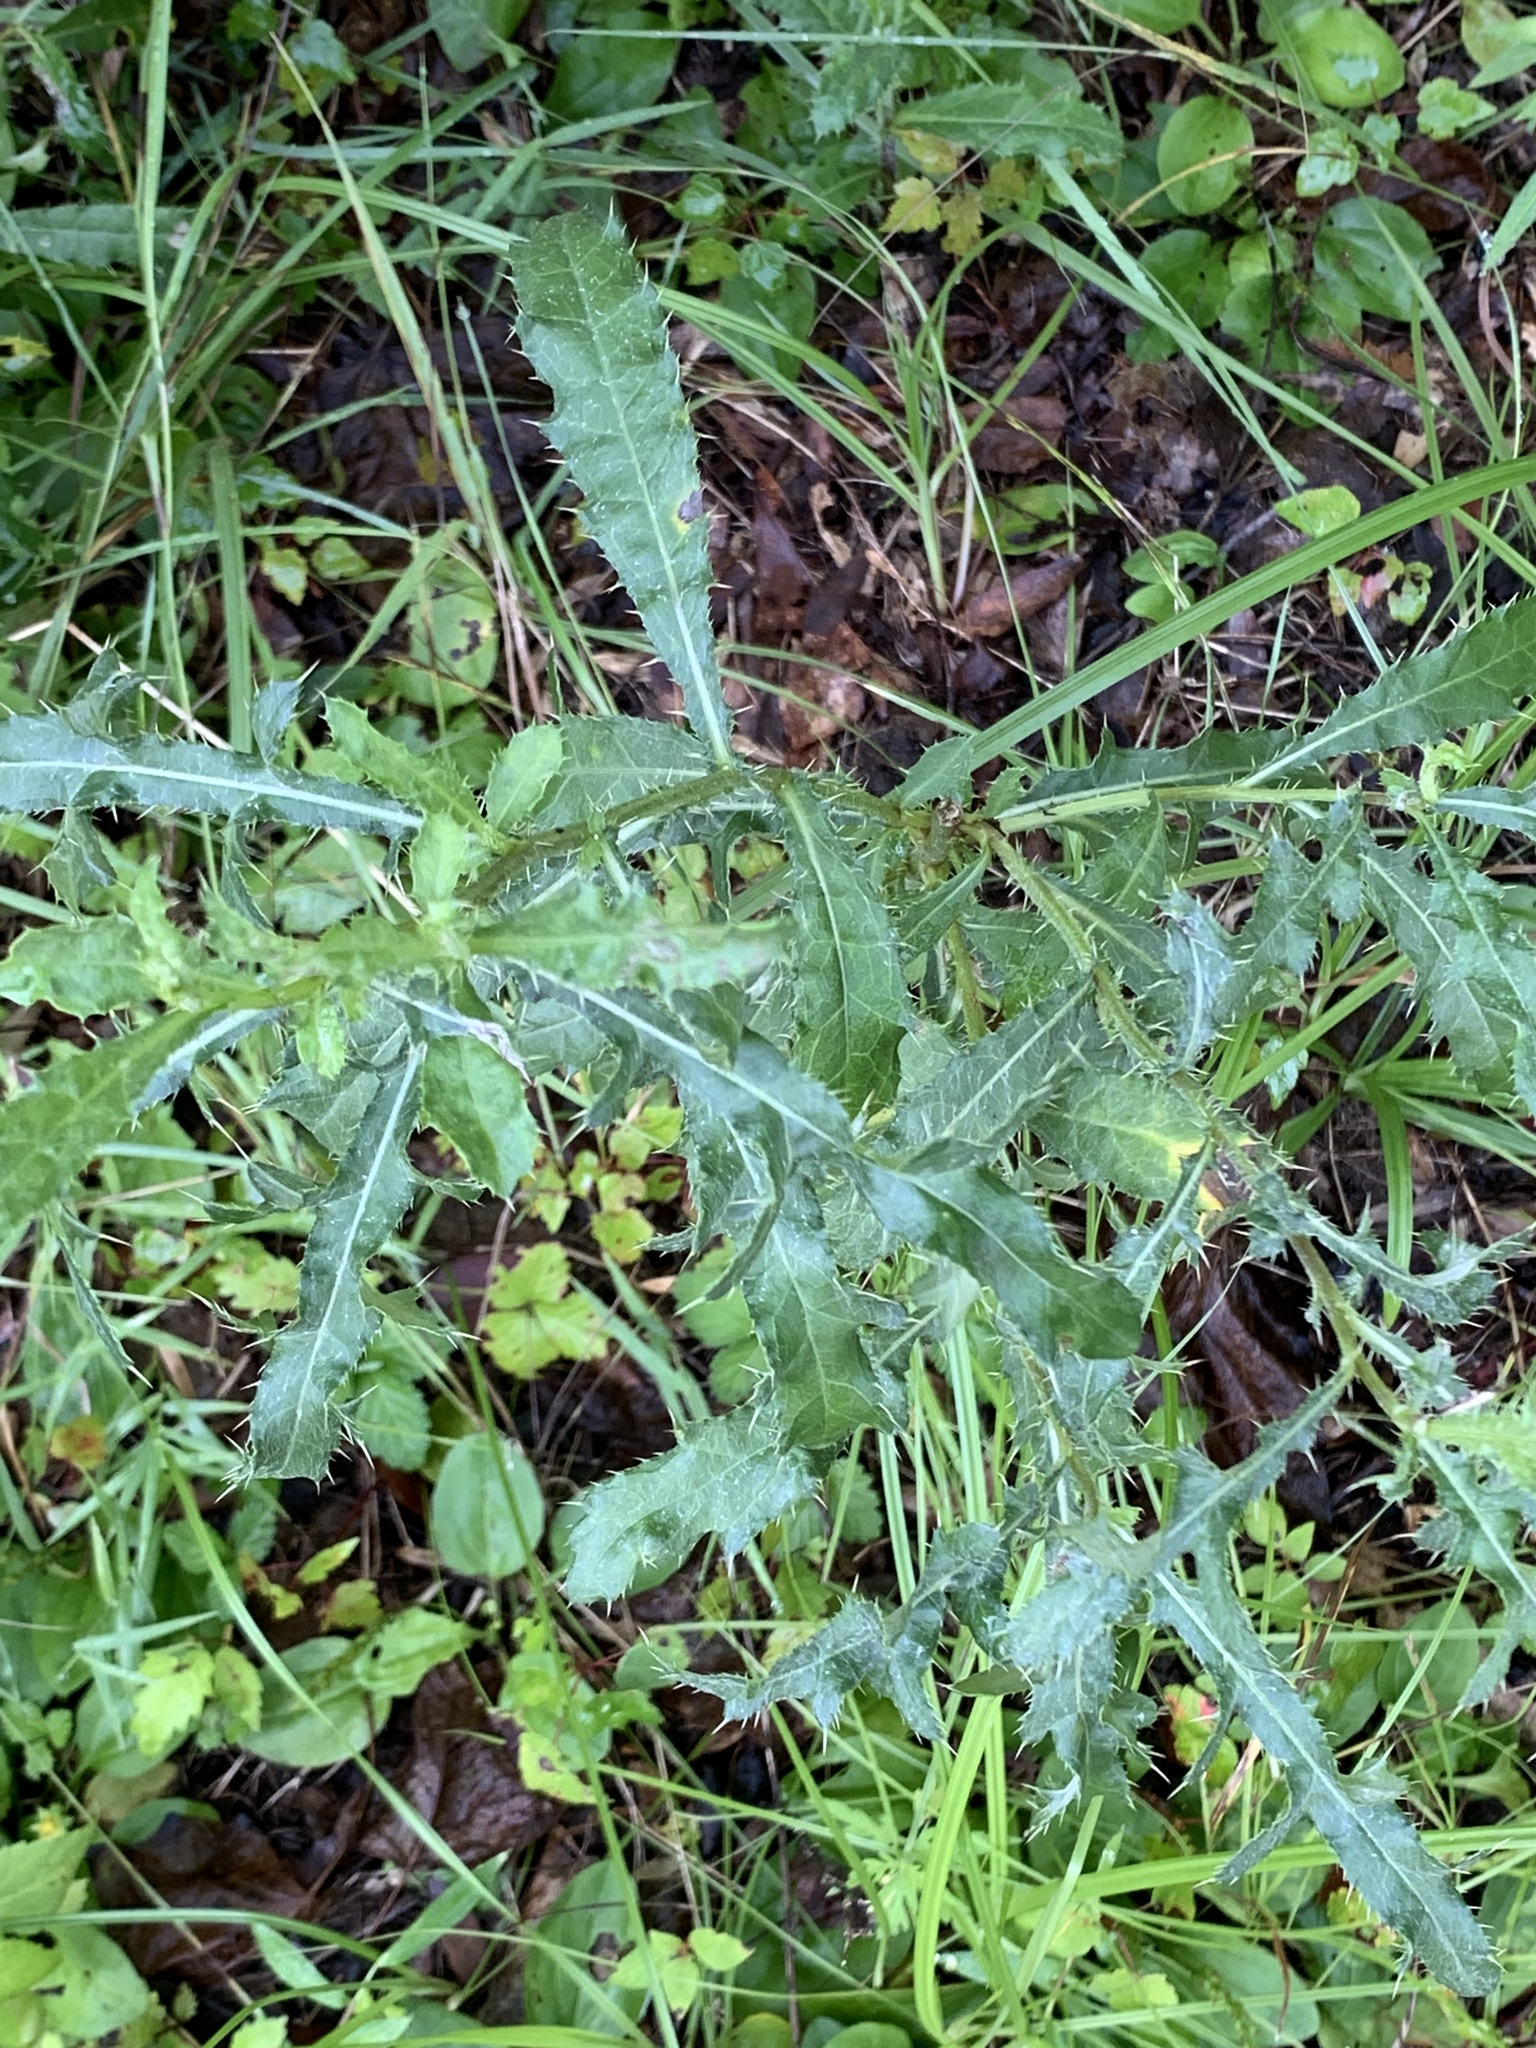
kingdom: Plantae
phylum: Tracheophyta
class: Magnoliopsida
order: Asterales
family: Asteraceae
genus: Cirsium
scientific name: Cirsium arvense
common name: Creeping thistle
